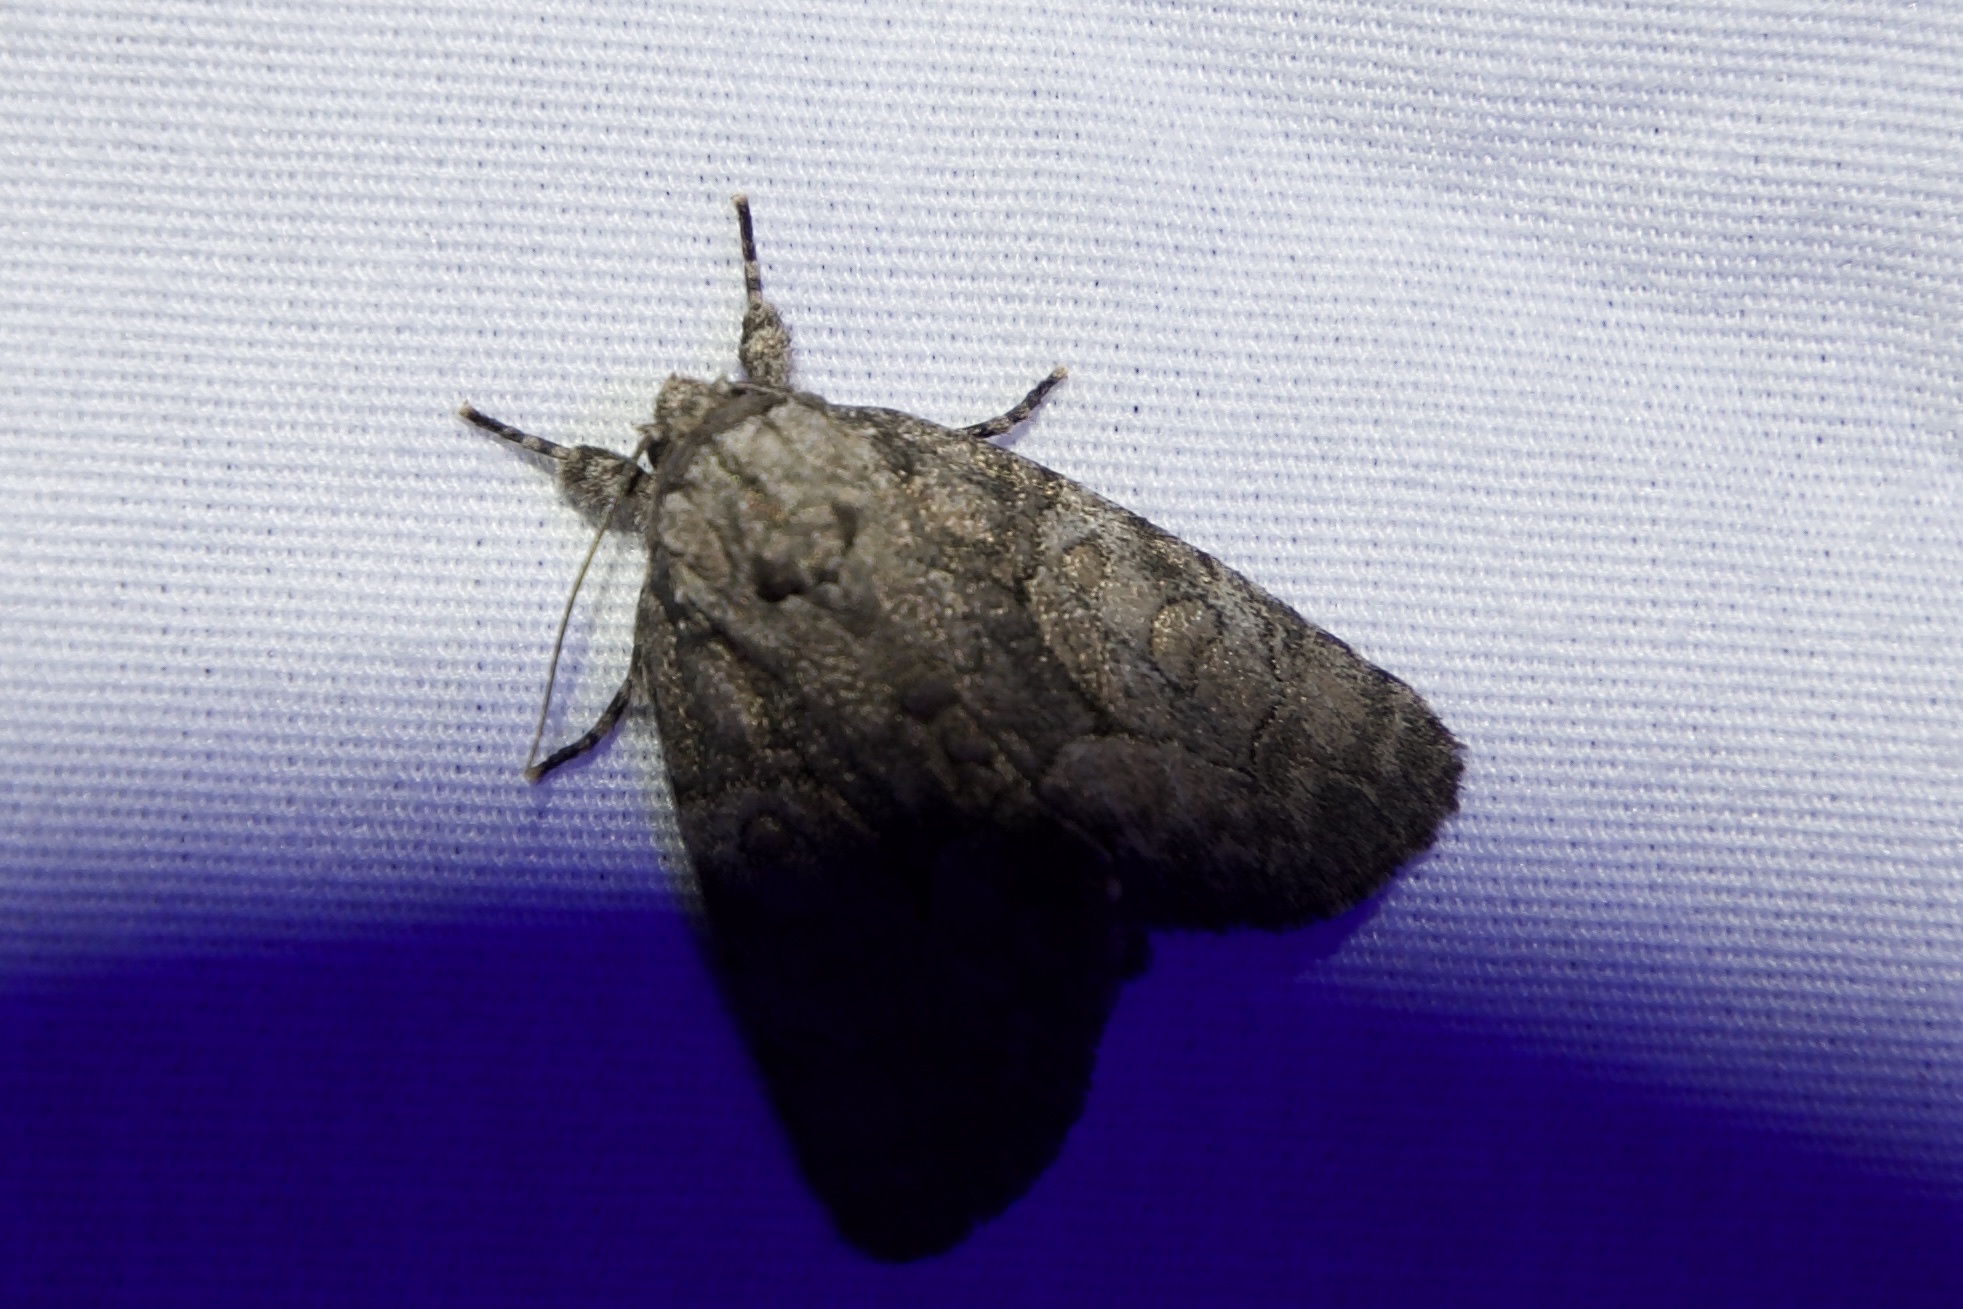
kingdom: Animalia
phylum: Arthropoda
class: Insecta
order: Lepidoptera
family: Noctuidae
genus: Raphia
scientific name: Raphia frater
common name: Brother
